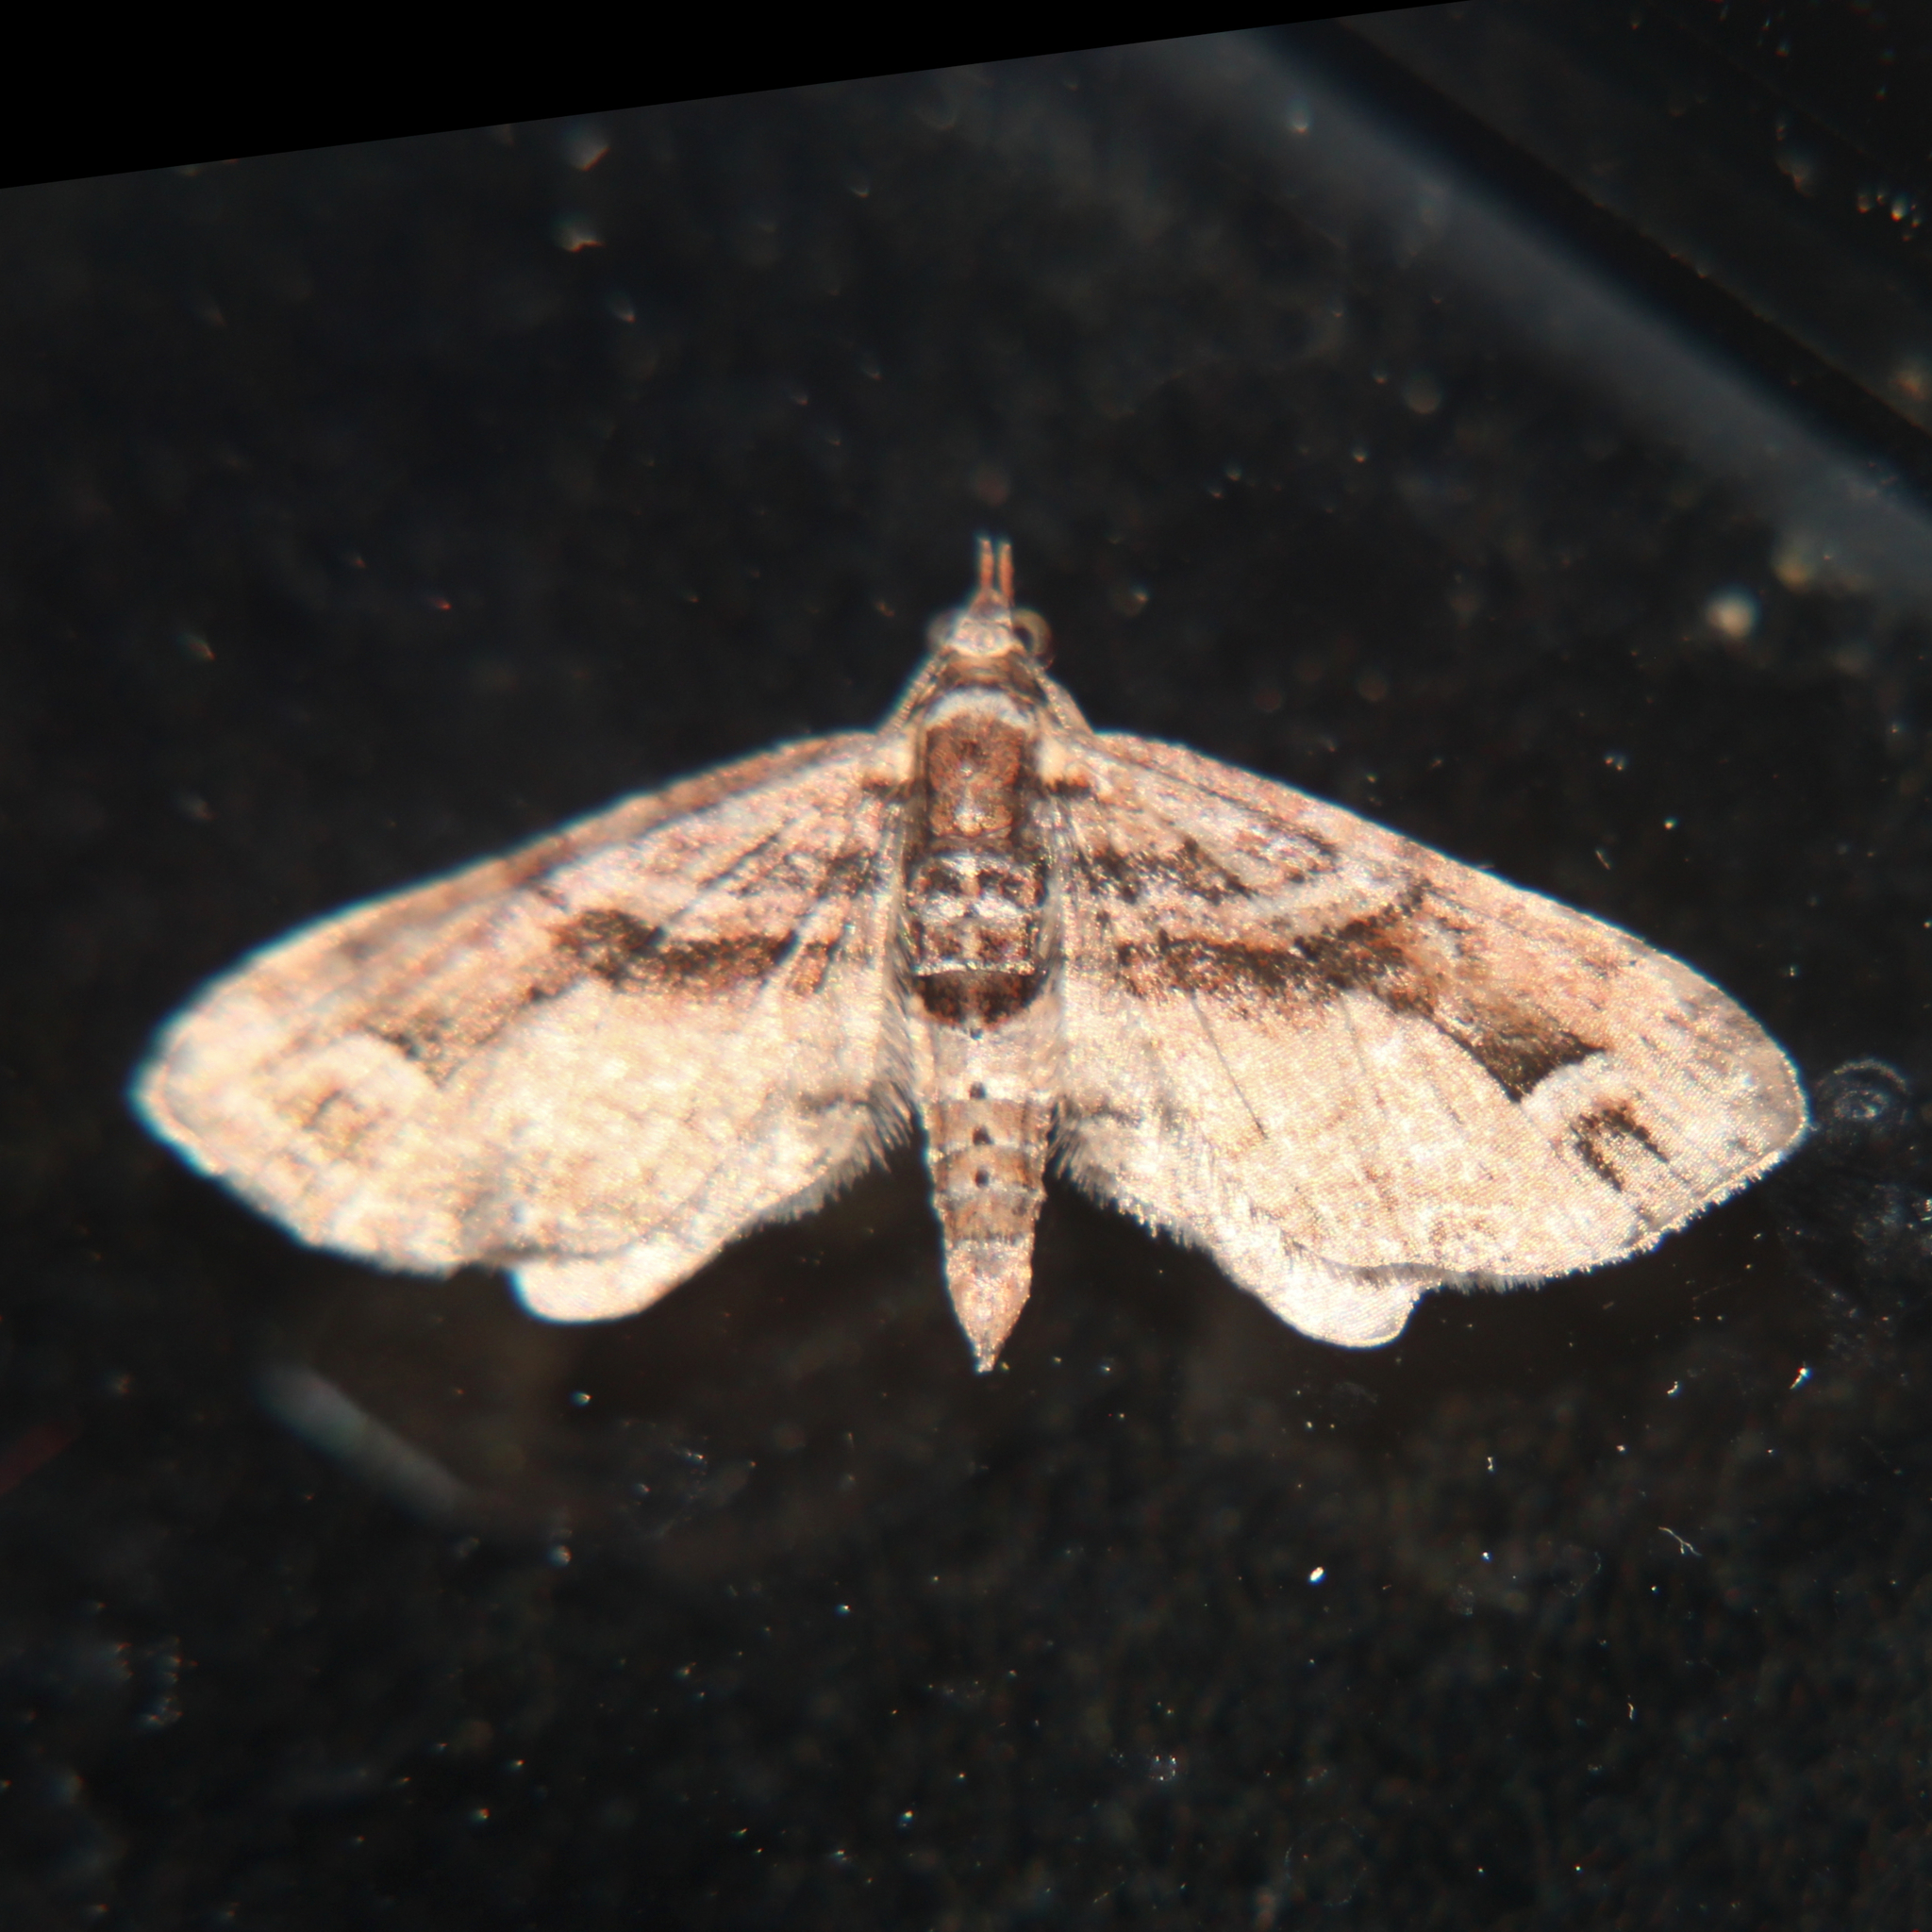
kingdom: Animalia
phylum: Arthropoda
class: Insecta
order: Lepidoptera
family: Geometridae
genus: Idaea
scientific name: Idaea mutanda
